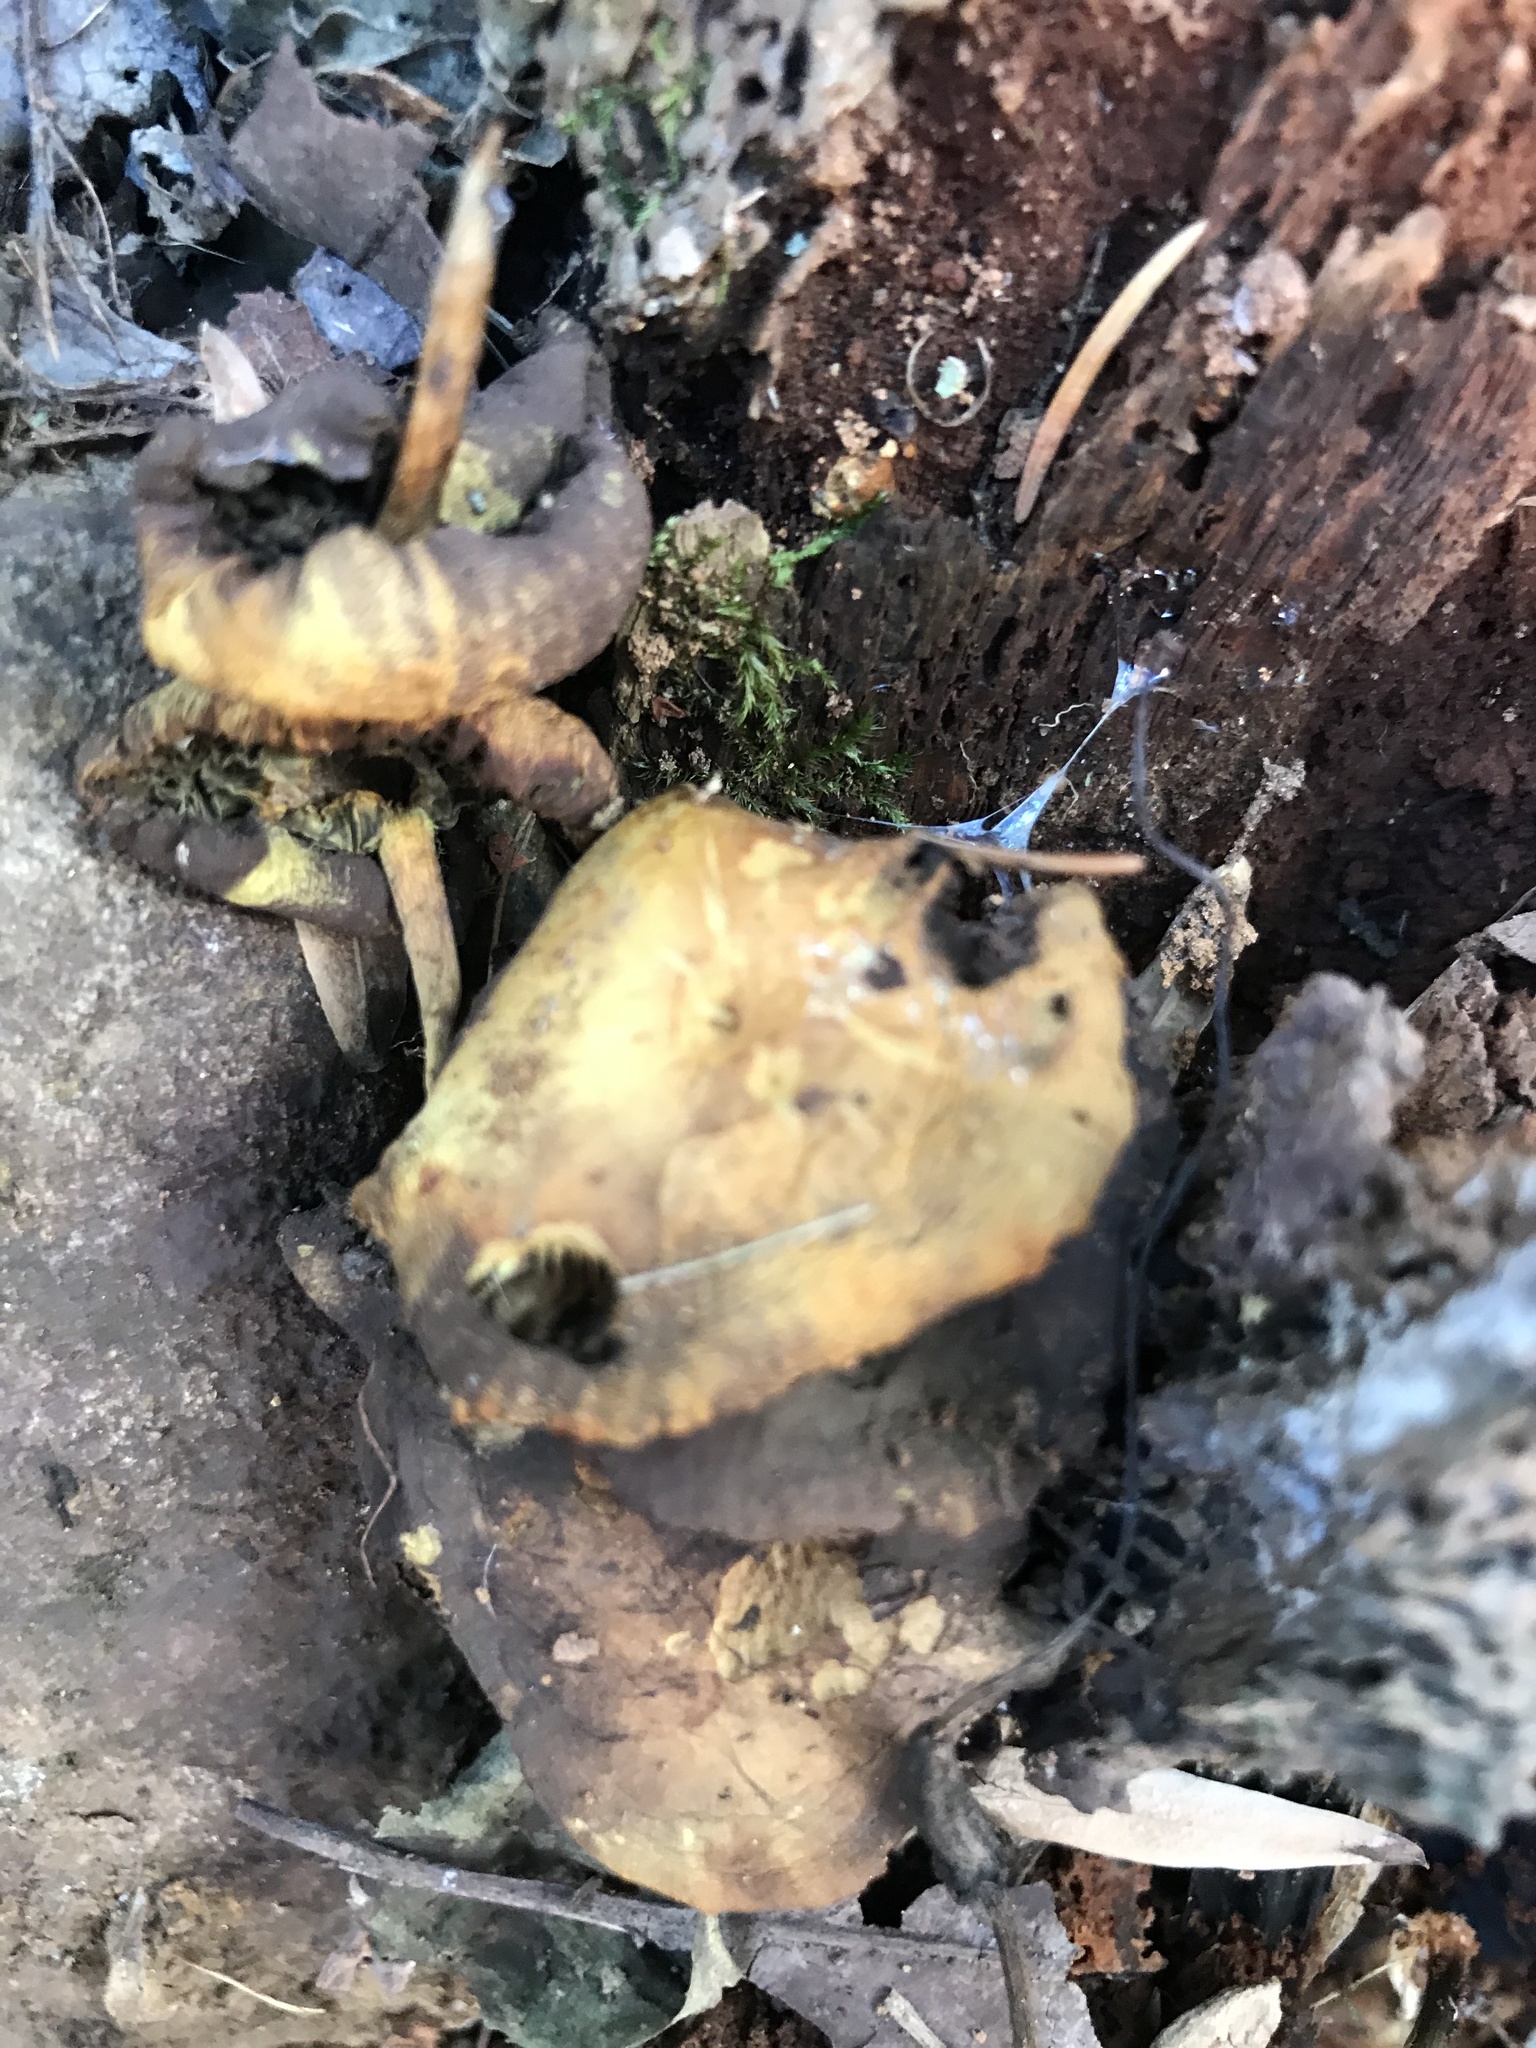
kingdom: Fungi
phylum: Basidiomycota
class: Agaricomycetes
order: Agaricales
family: Strophariaceae
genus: Hypholoma
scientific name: Hypholoma fasciculare
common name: Sulphur tuft
